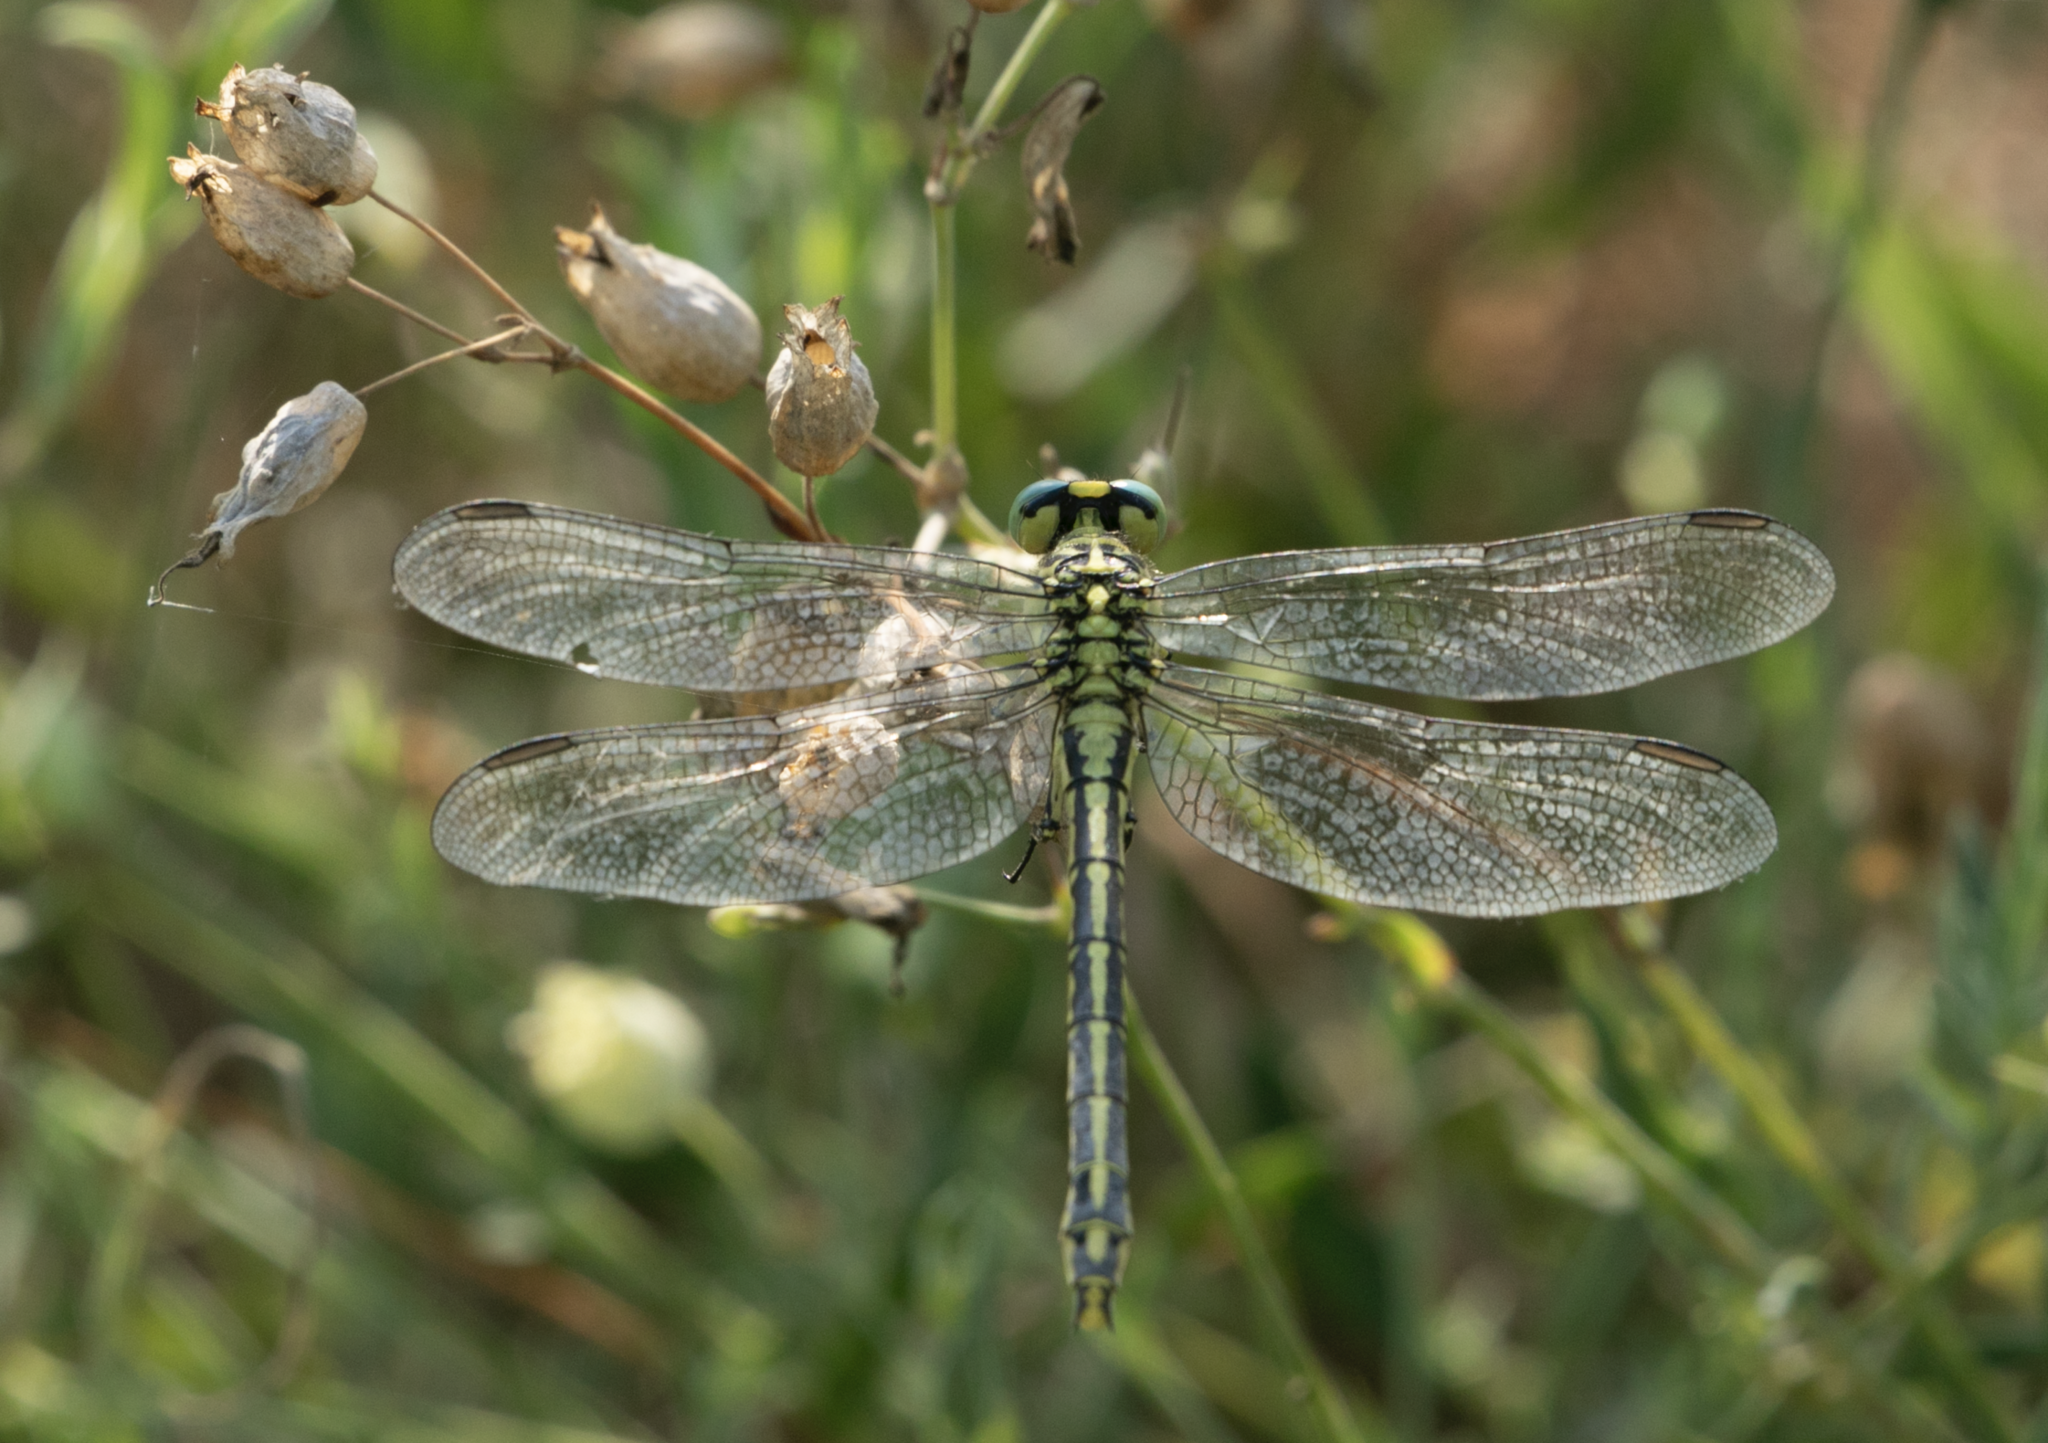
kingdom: Animalia
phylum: Arthropoda
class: Insecta
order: Odonata
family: Gomphidae
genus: Stylurus
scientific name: Stylurus flavipes
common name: River clubtail
